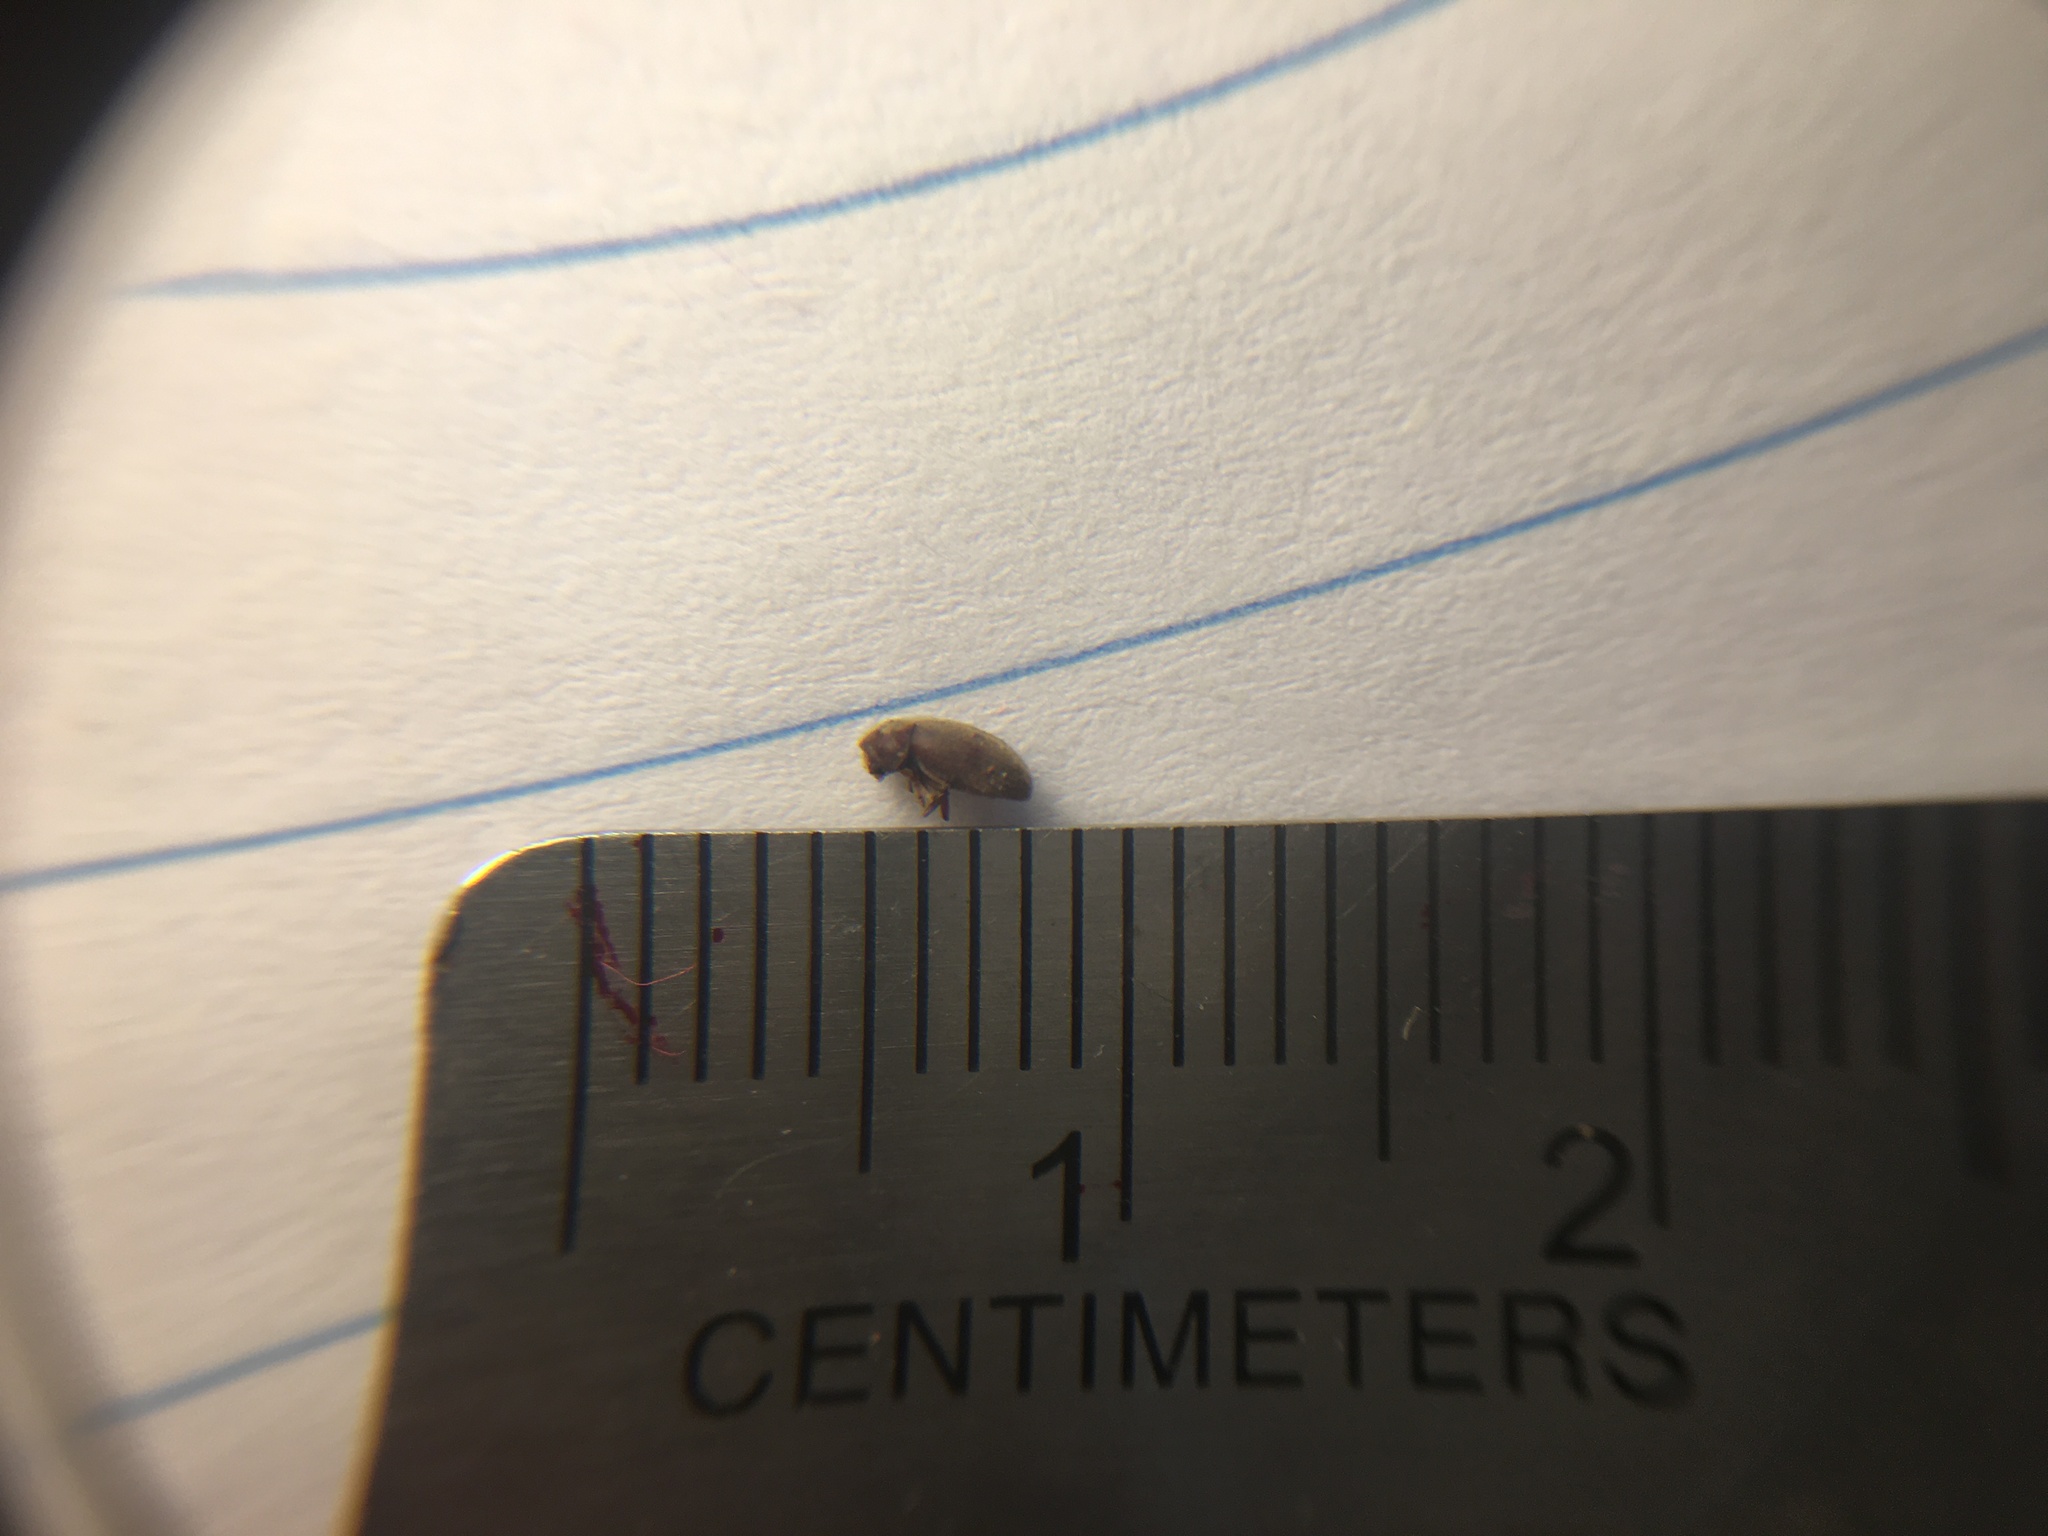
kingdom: Animalia
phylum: Arthropoda
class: Insecta
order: Coleoptera
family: Anobiidae
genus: Stegobium
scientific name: Stegobium paniceum
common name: Drugstore beetle
